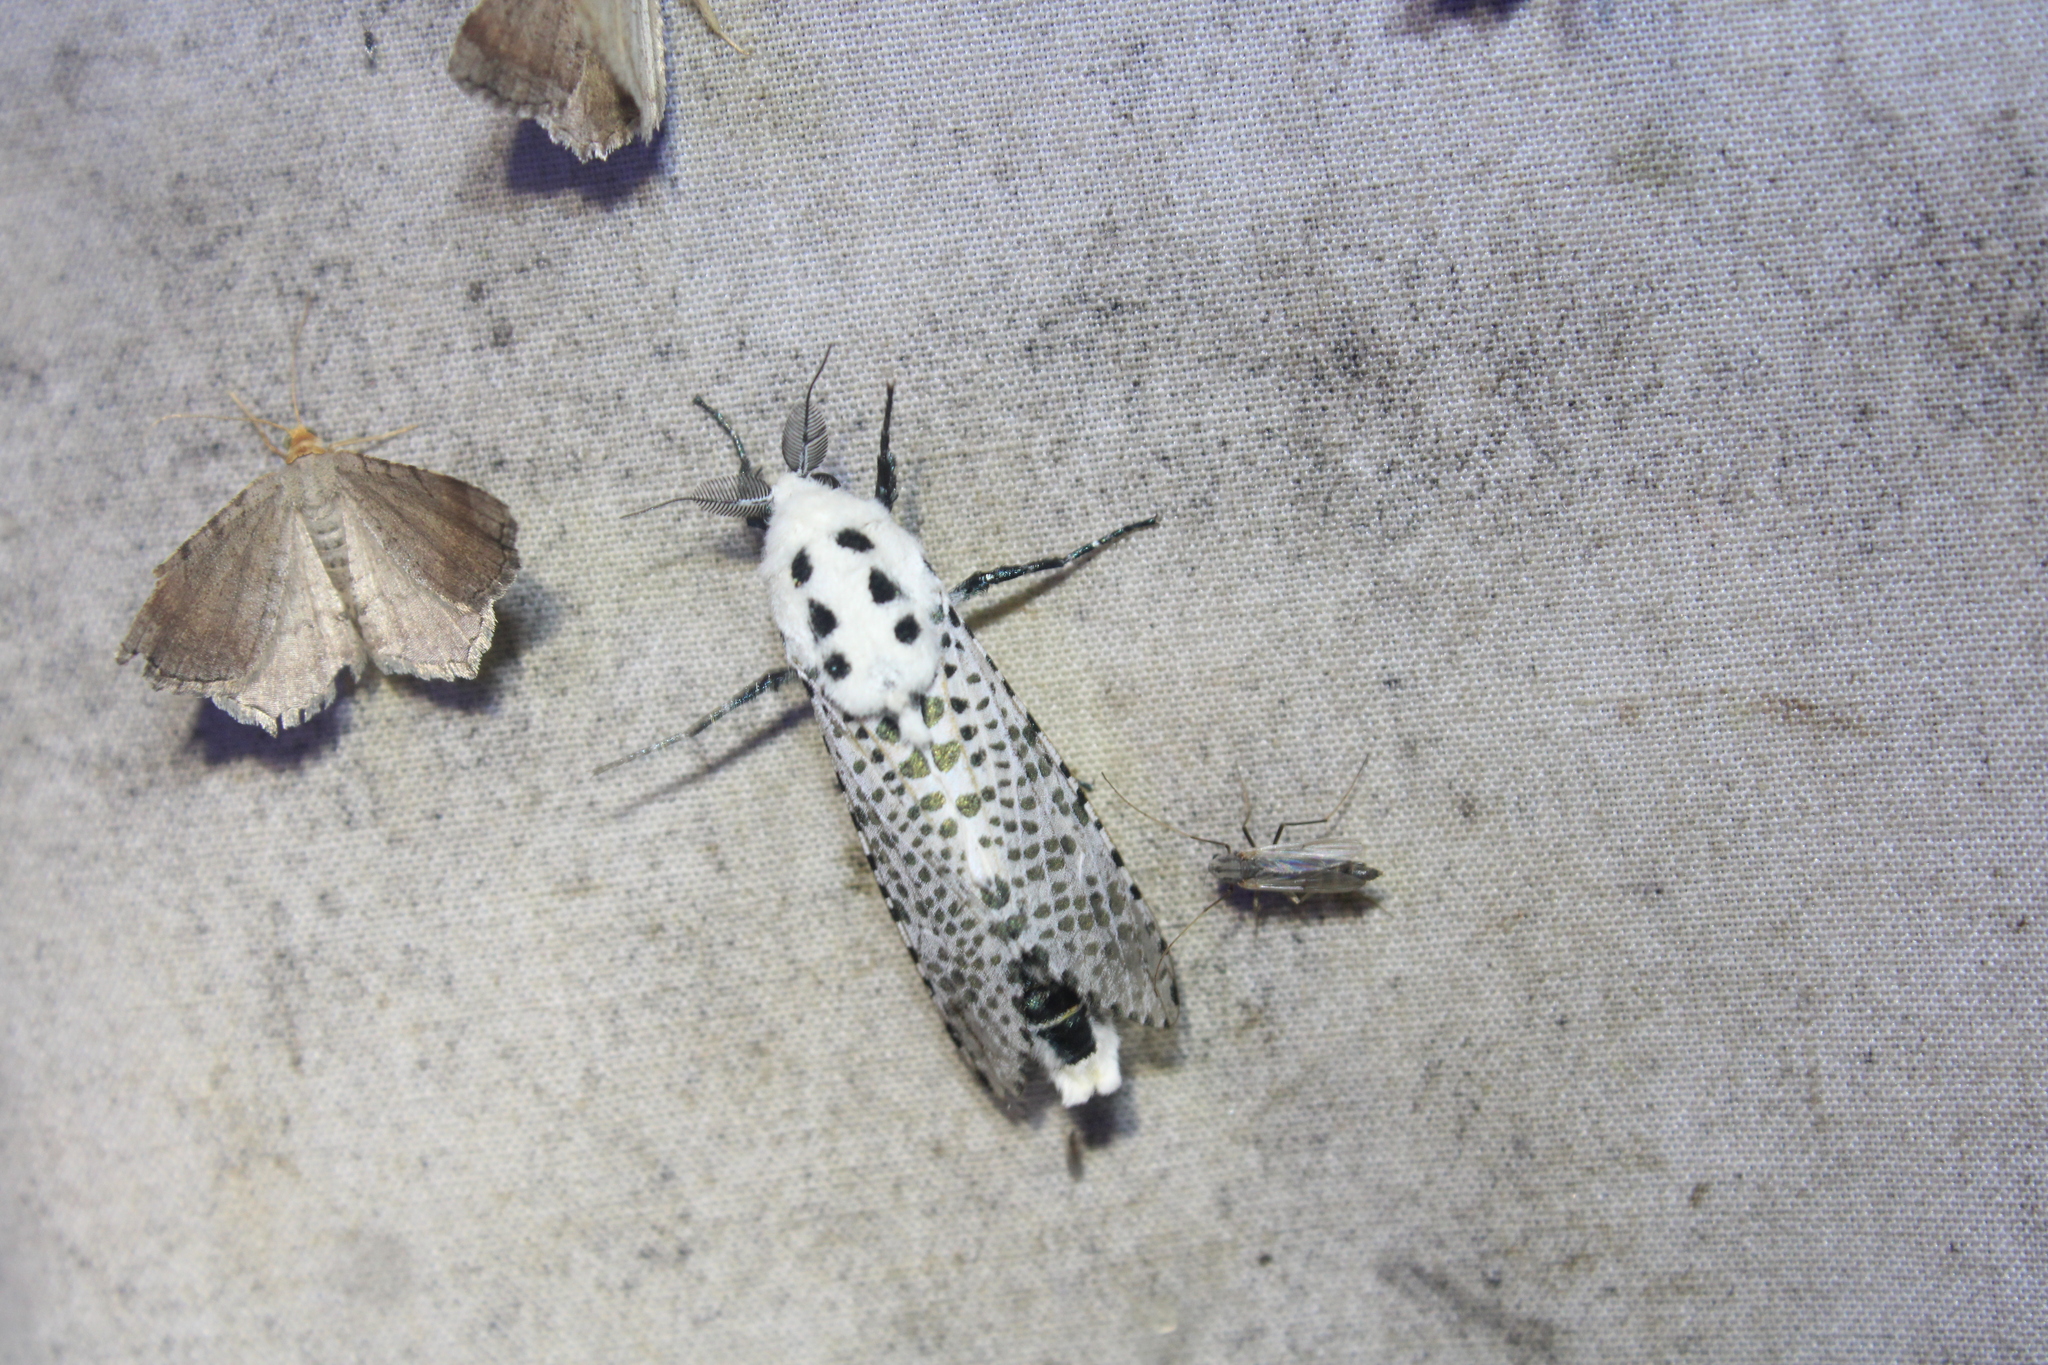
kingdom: Animalia
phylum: Arthropoda
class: Insecta
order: Lepidoptera
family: Cossidae
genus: Zeuzera
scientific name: Zeuzera pyrina
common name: Leopard moth
